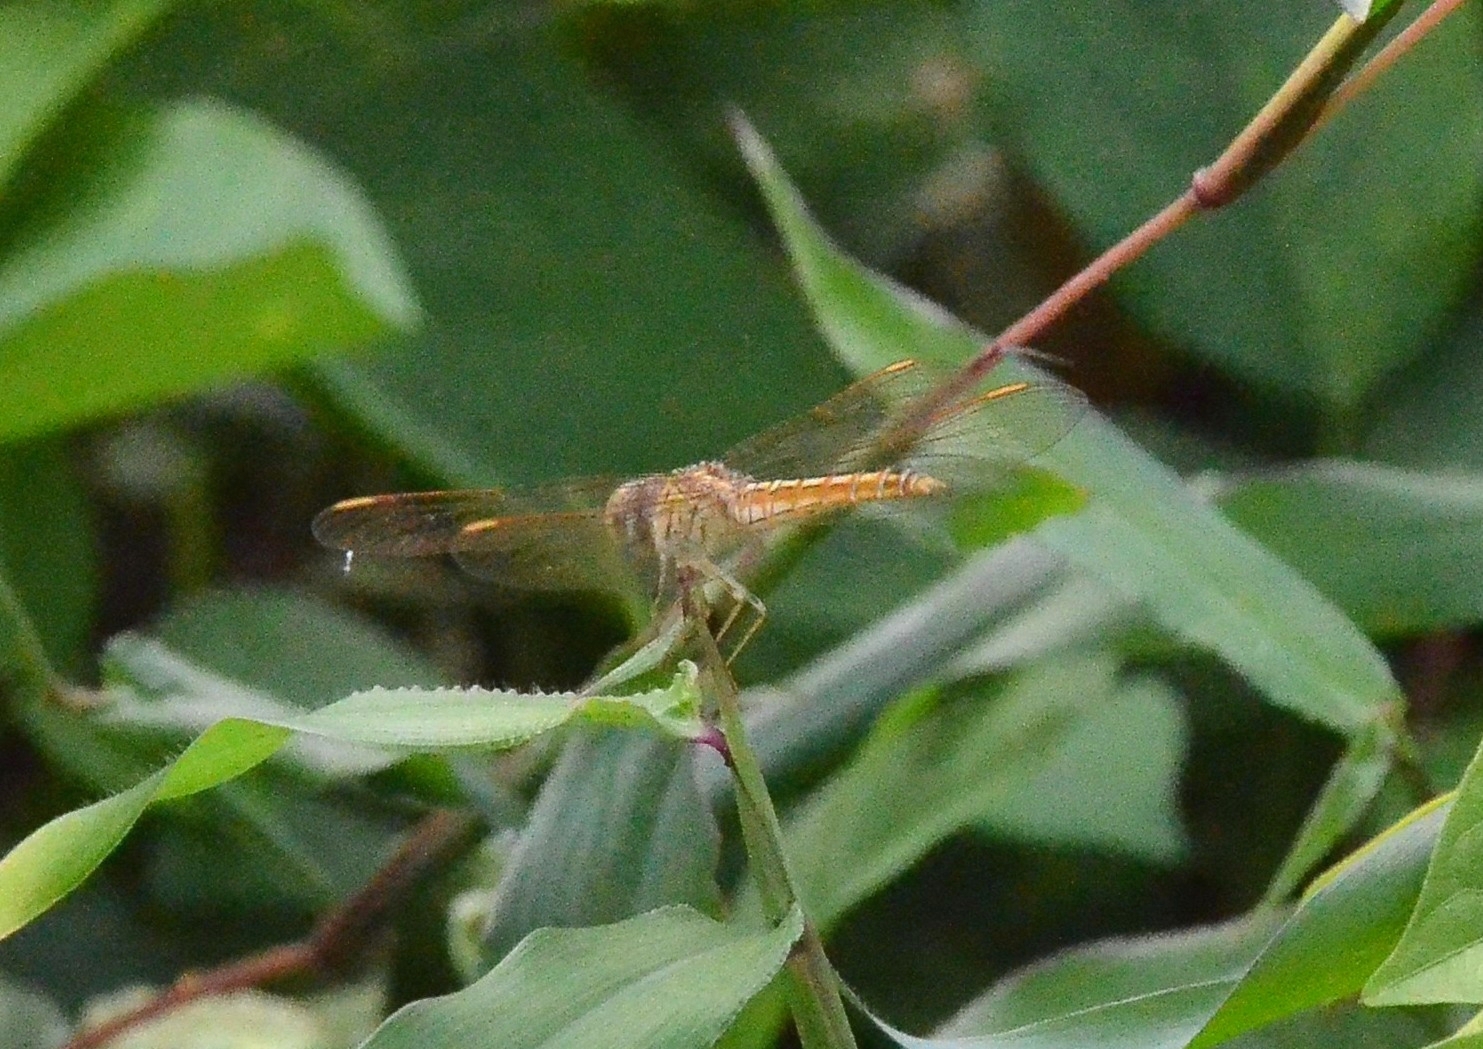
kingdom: Animalia
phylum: Arthropoda
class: Insecta
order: Odonata
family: Libellulidae
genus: Brachythemis
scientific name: Brachythemis contaminata
